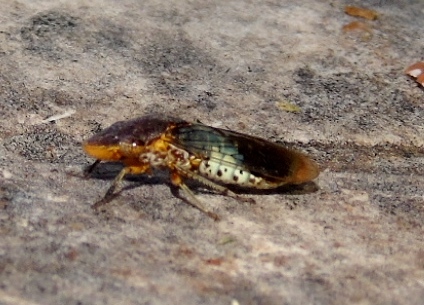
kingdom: Animalia
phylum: Arthropoda
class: Insecta
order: Hemiptera
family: Cicadellidae
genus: Homalodisca
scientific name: Homalodisca ichthyocephala
